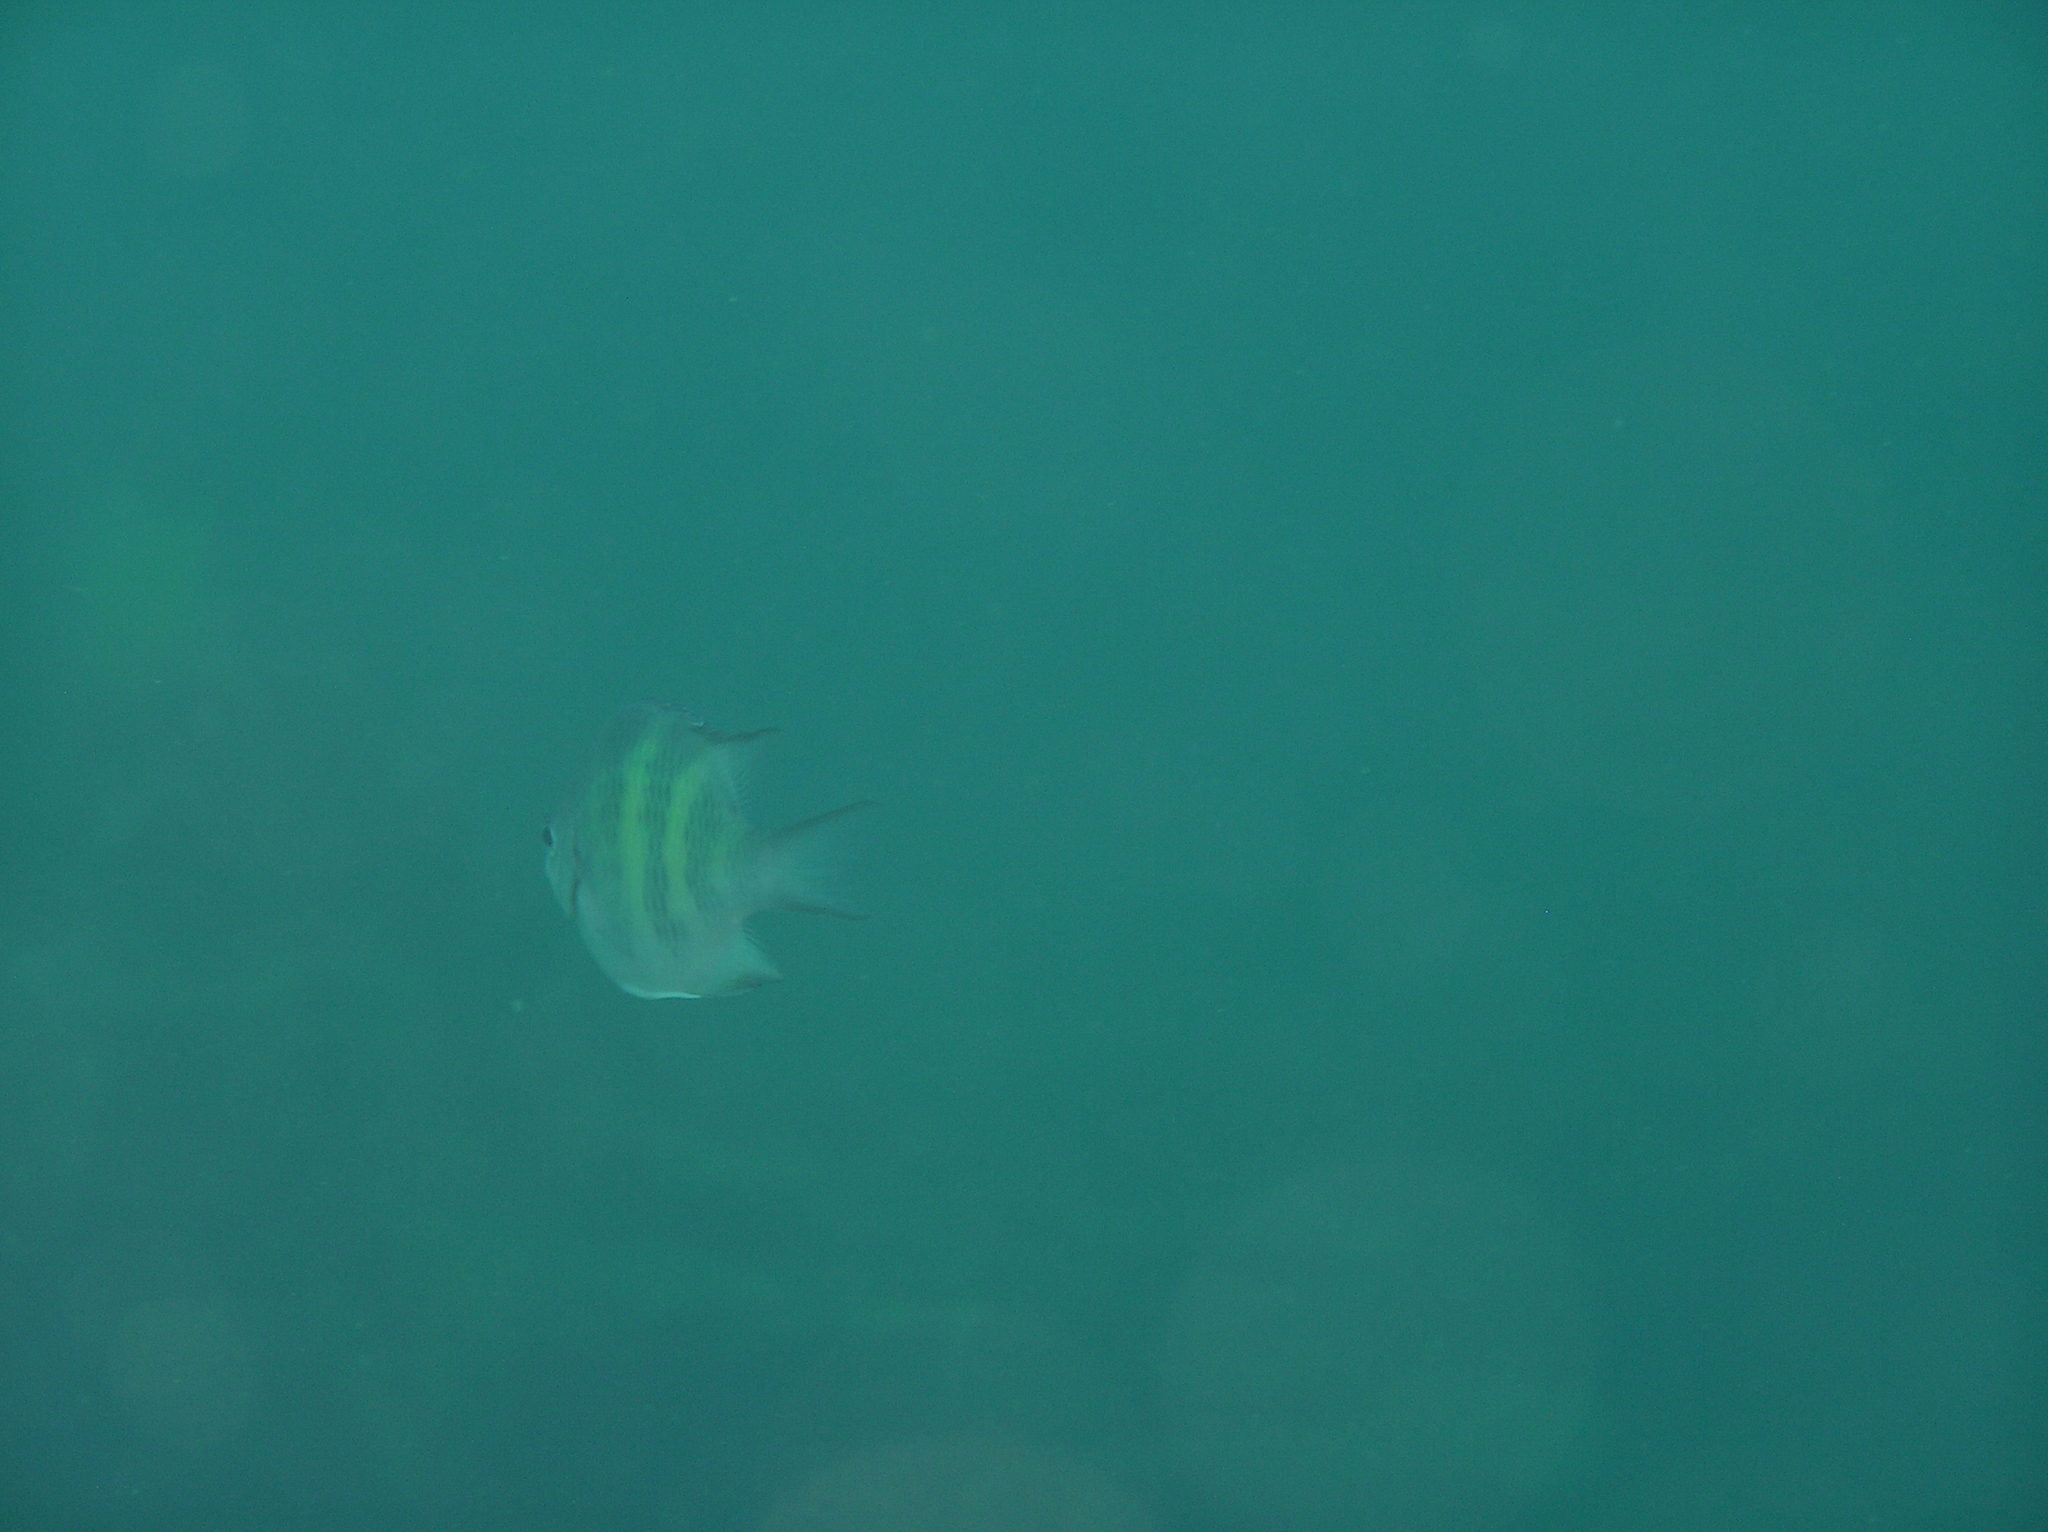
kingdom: Animalia
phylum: Chordata
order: Perciformes
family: Pomacentridae
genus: Amblyglyphidodon
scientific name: Amblyglyphidodon curacao
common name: Staghorn damsel
